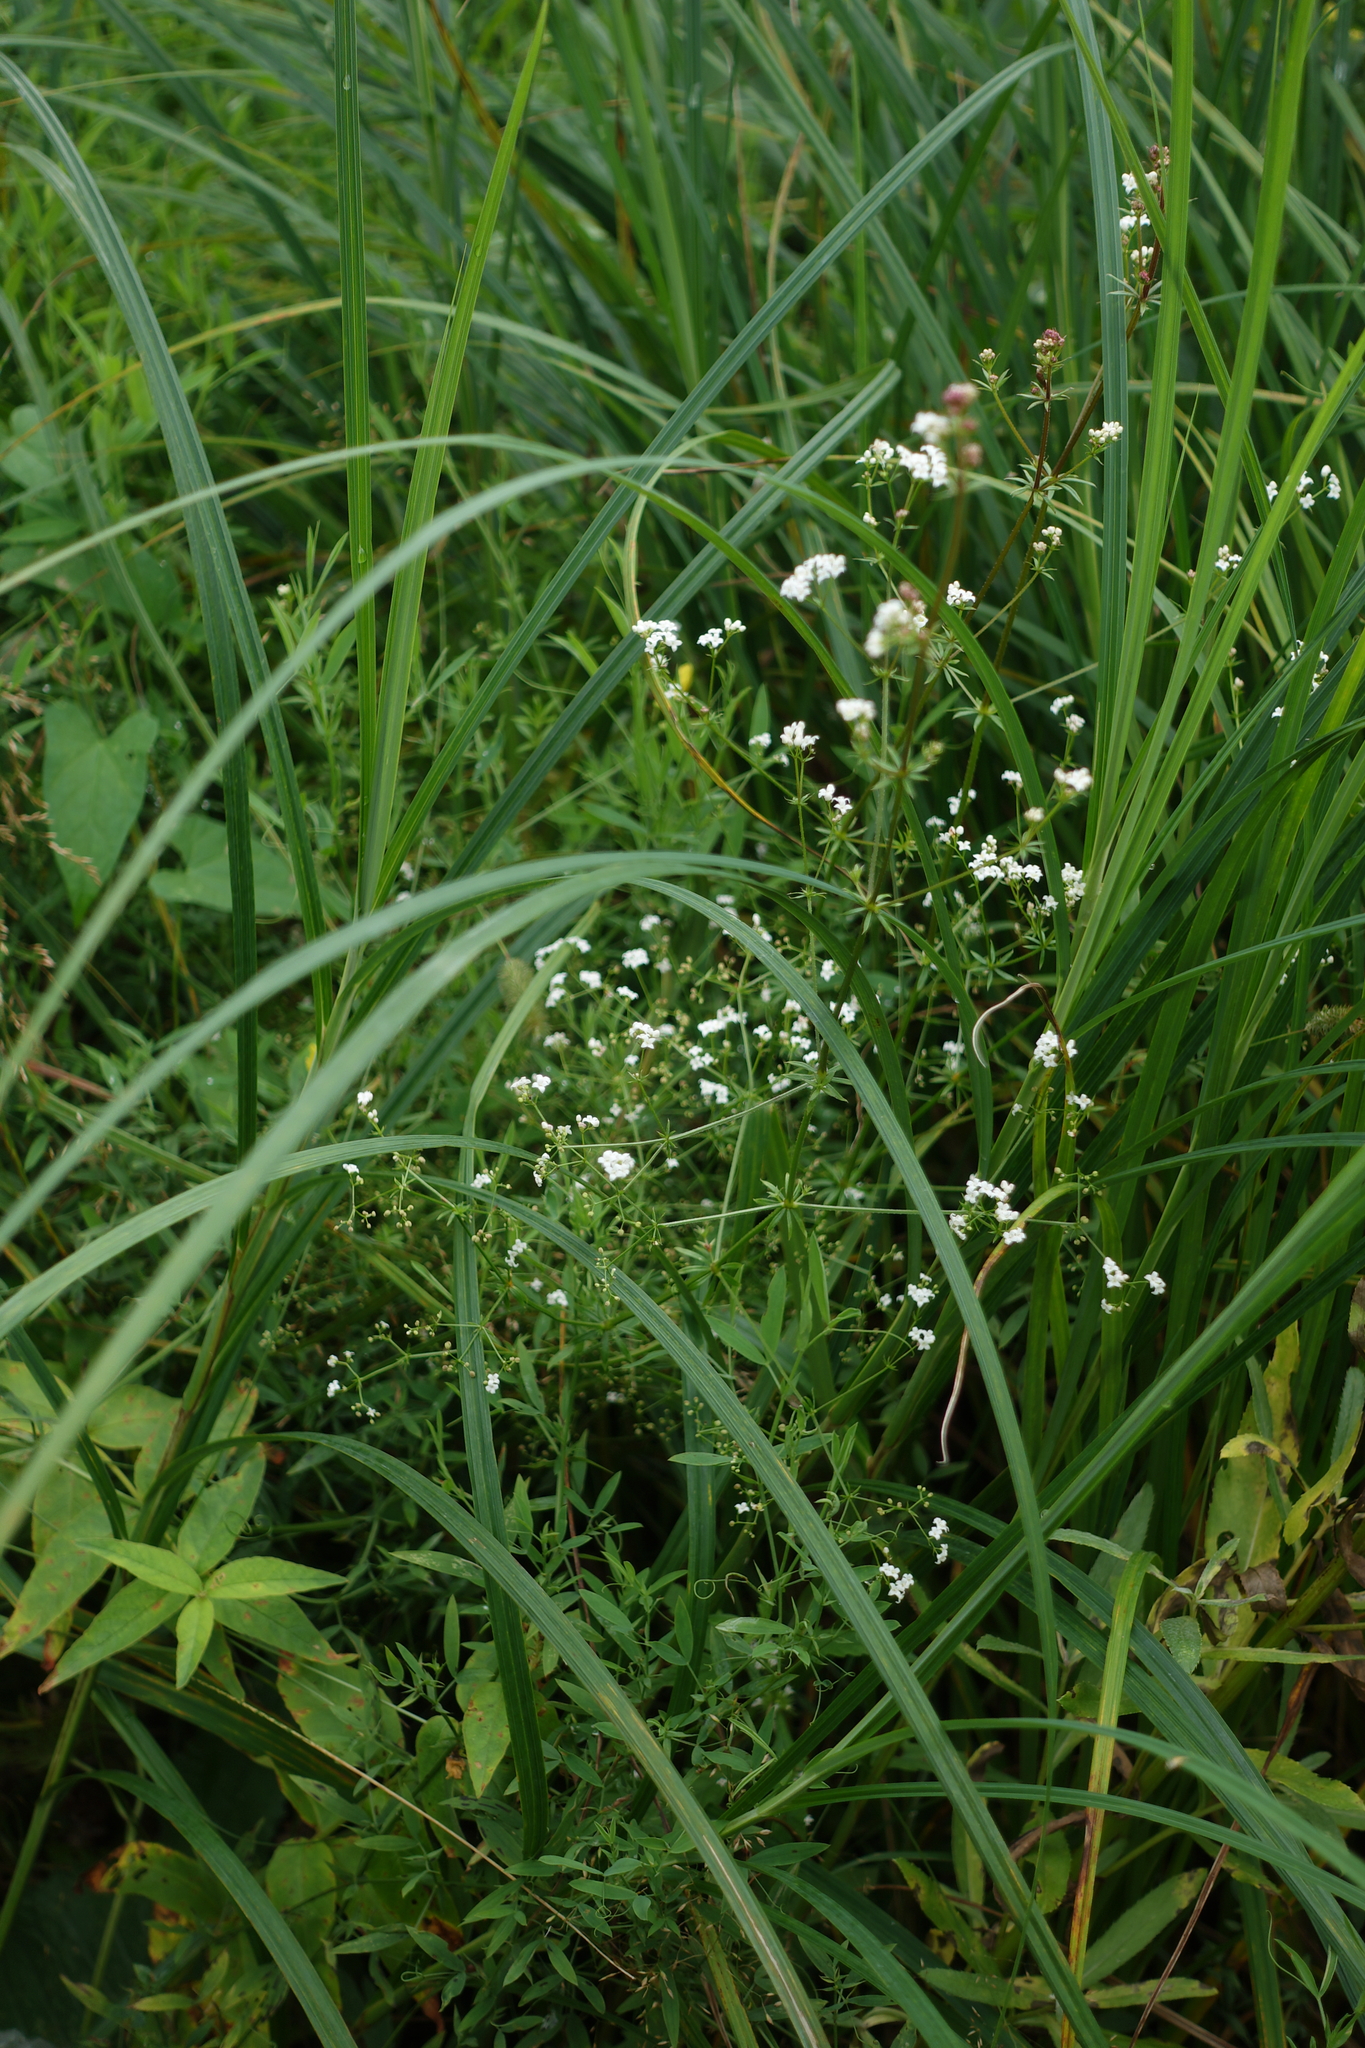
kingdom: Plantae
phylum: Tracheophyta
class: Magnoliopsida
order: Gentianales
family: Rubiaceae
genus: Galium
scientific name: Galium uliginosum
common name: Fen bedstraw
